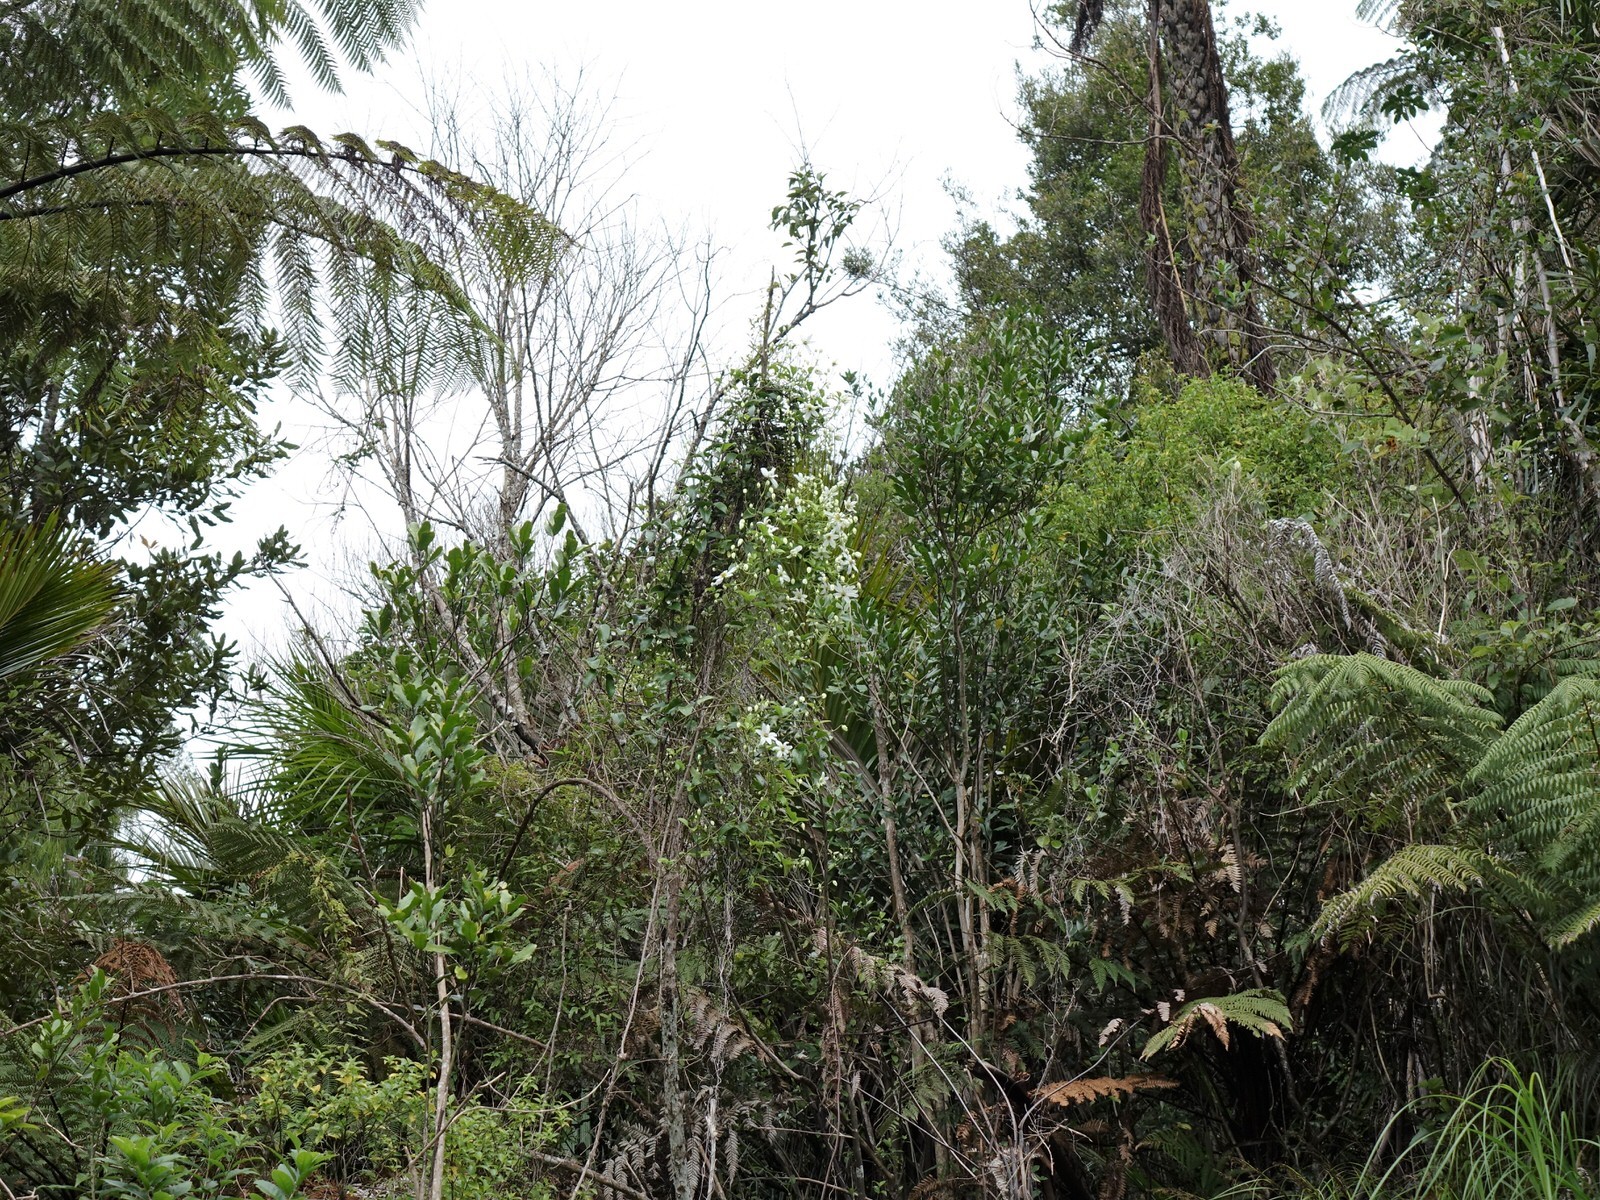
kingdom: Plantae
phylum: Tracheophyta
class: Magnoliopsida
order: Ranunculales
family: Ranunculaceae
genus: Clematis
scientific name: Clematis paniculata
